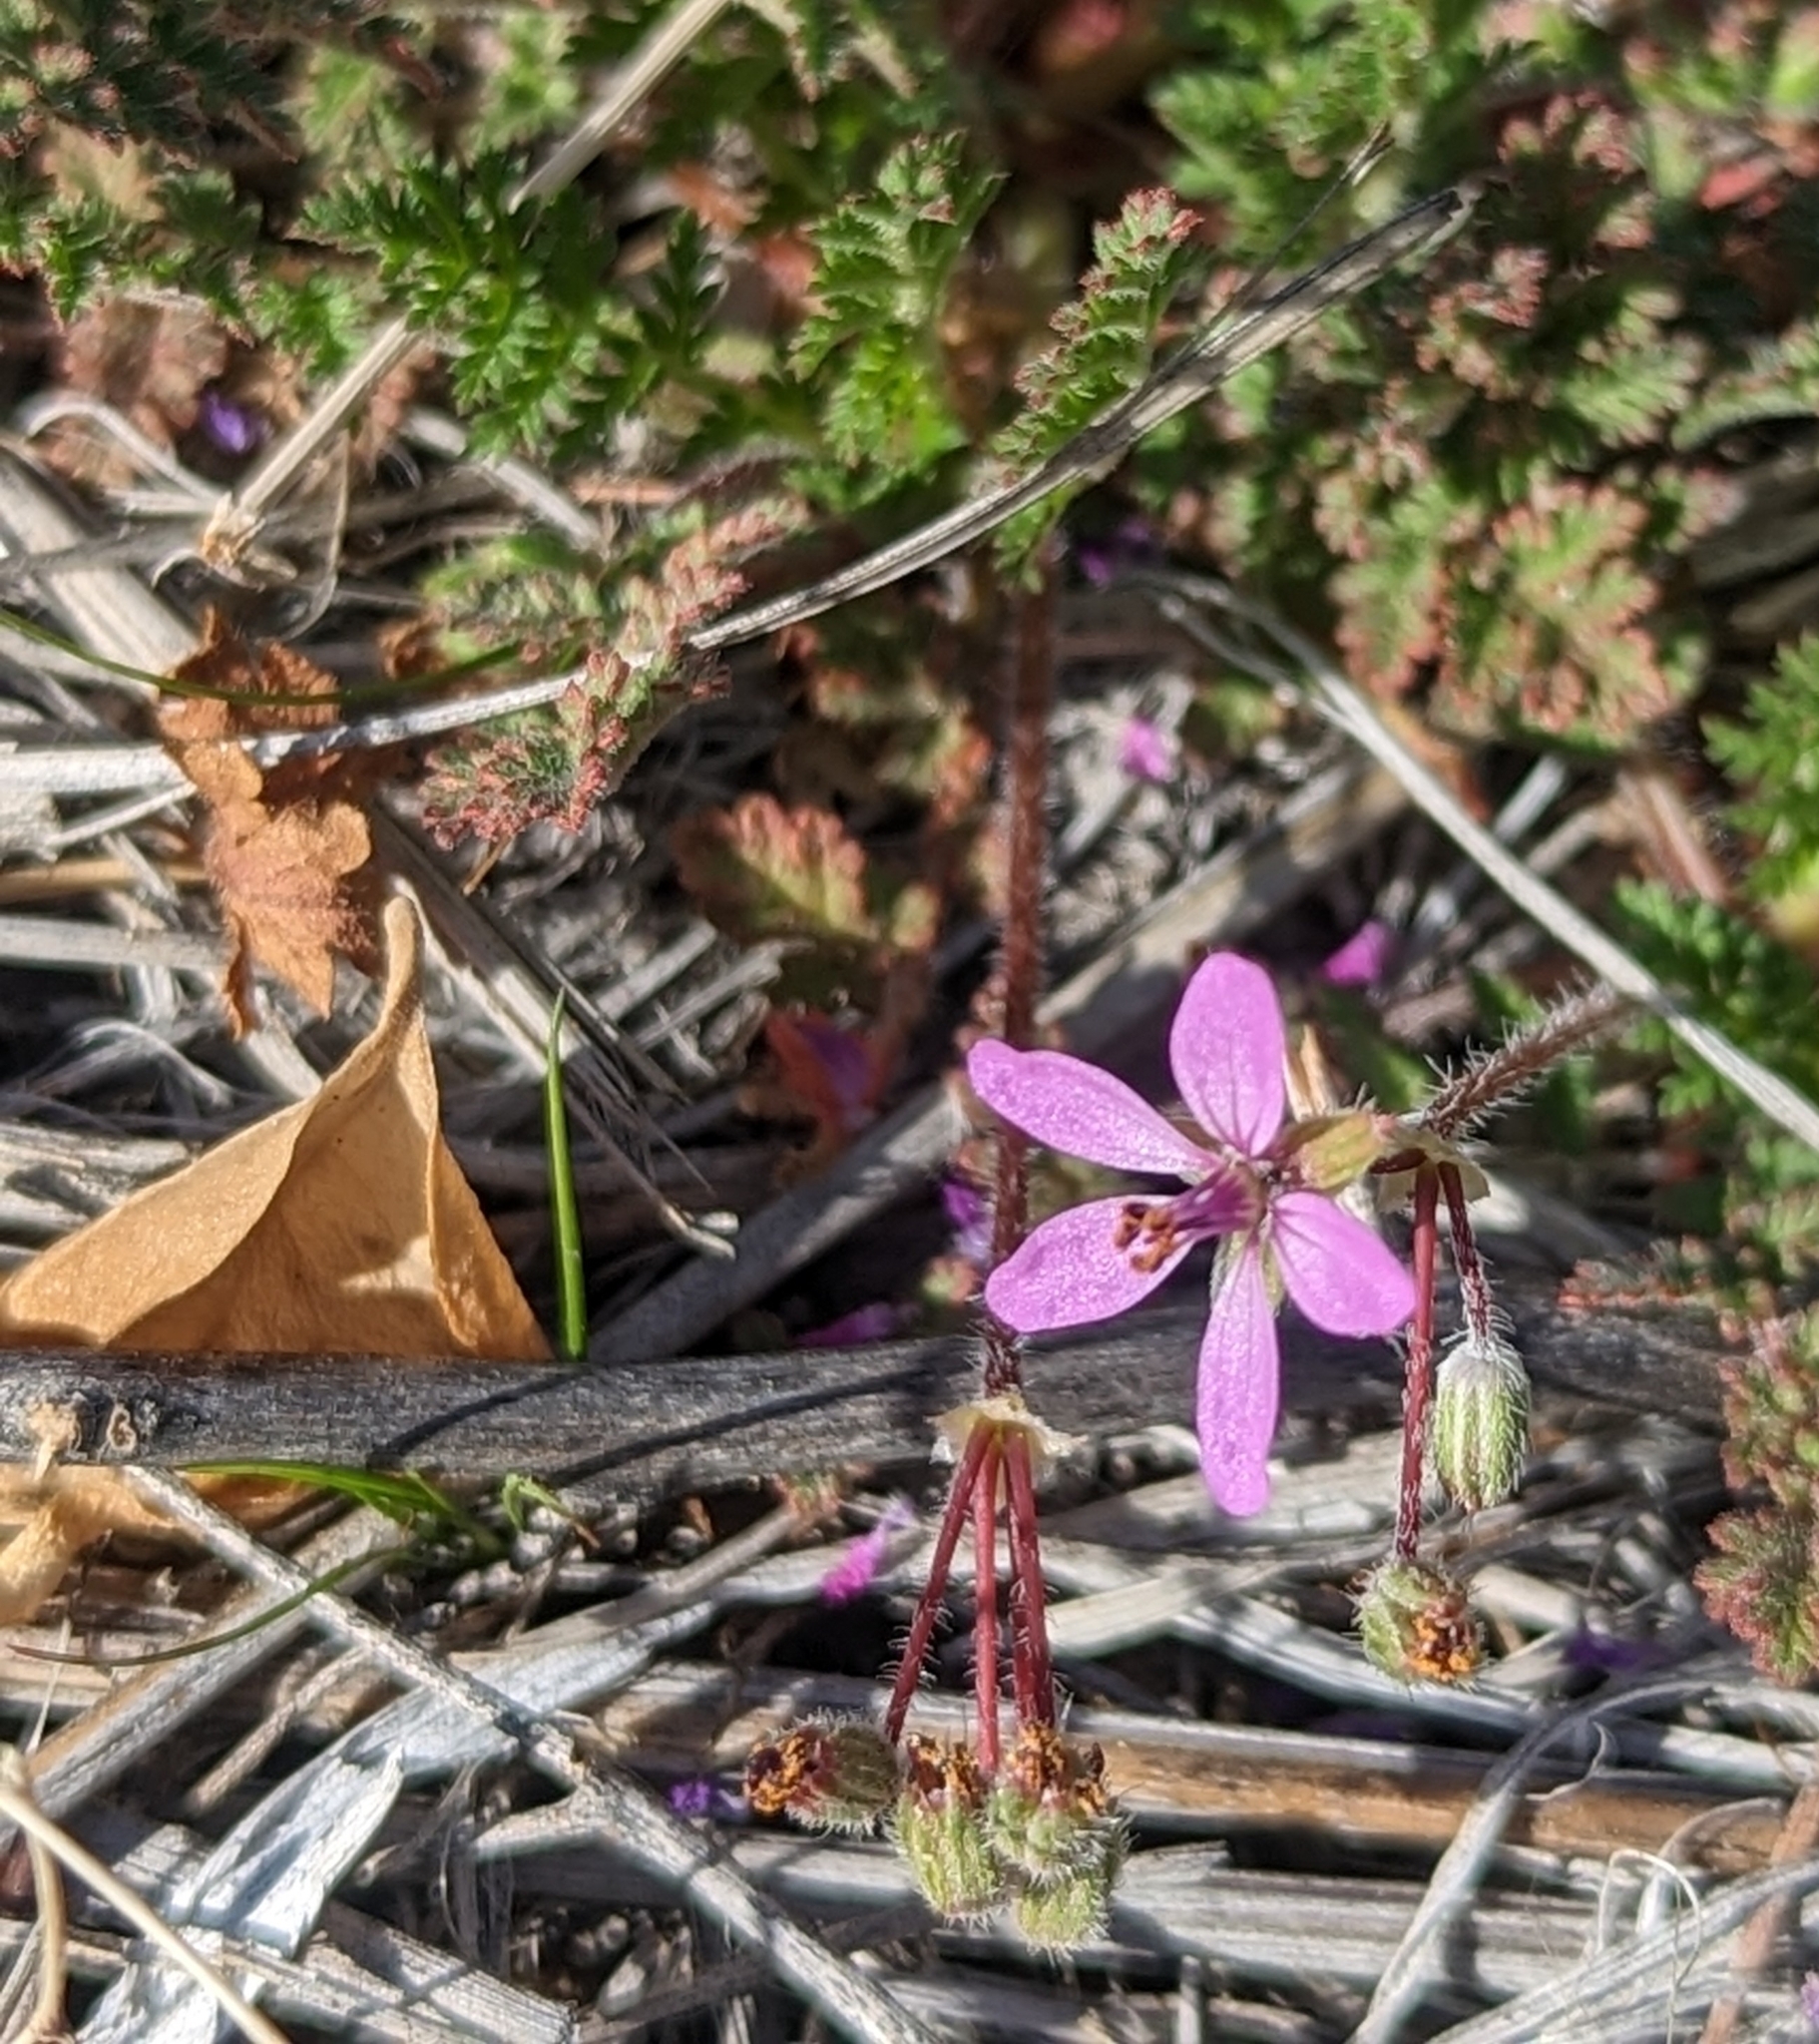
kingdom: Plantae
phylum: Tracheophyta
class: Magnoliopsida
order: Geraniales
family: Geraniaceae
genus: Erodium
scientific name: Erodium cicutarium
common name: Common stork's-bill
